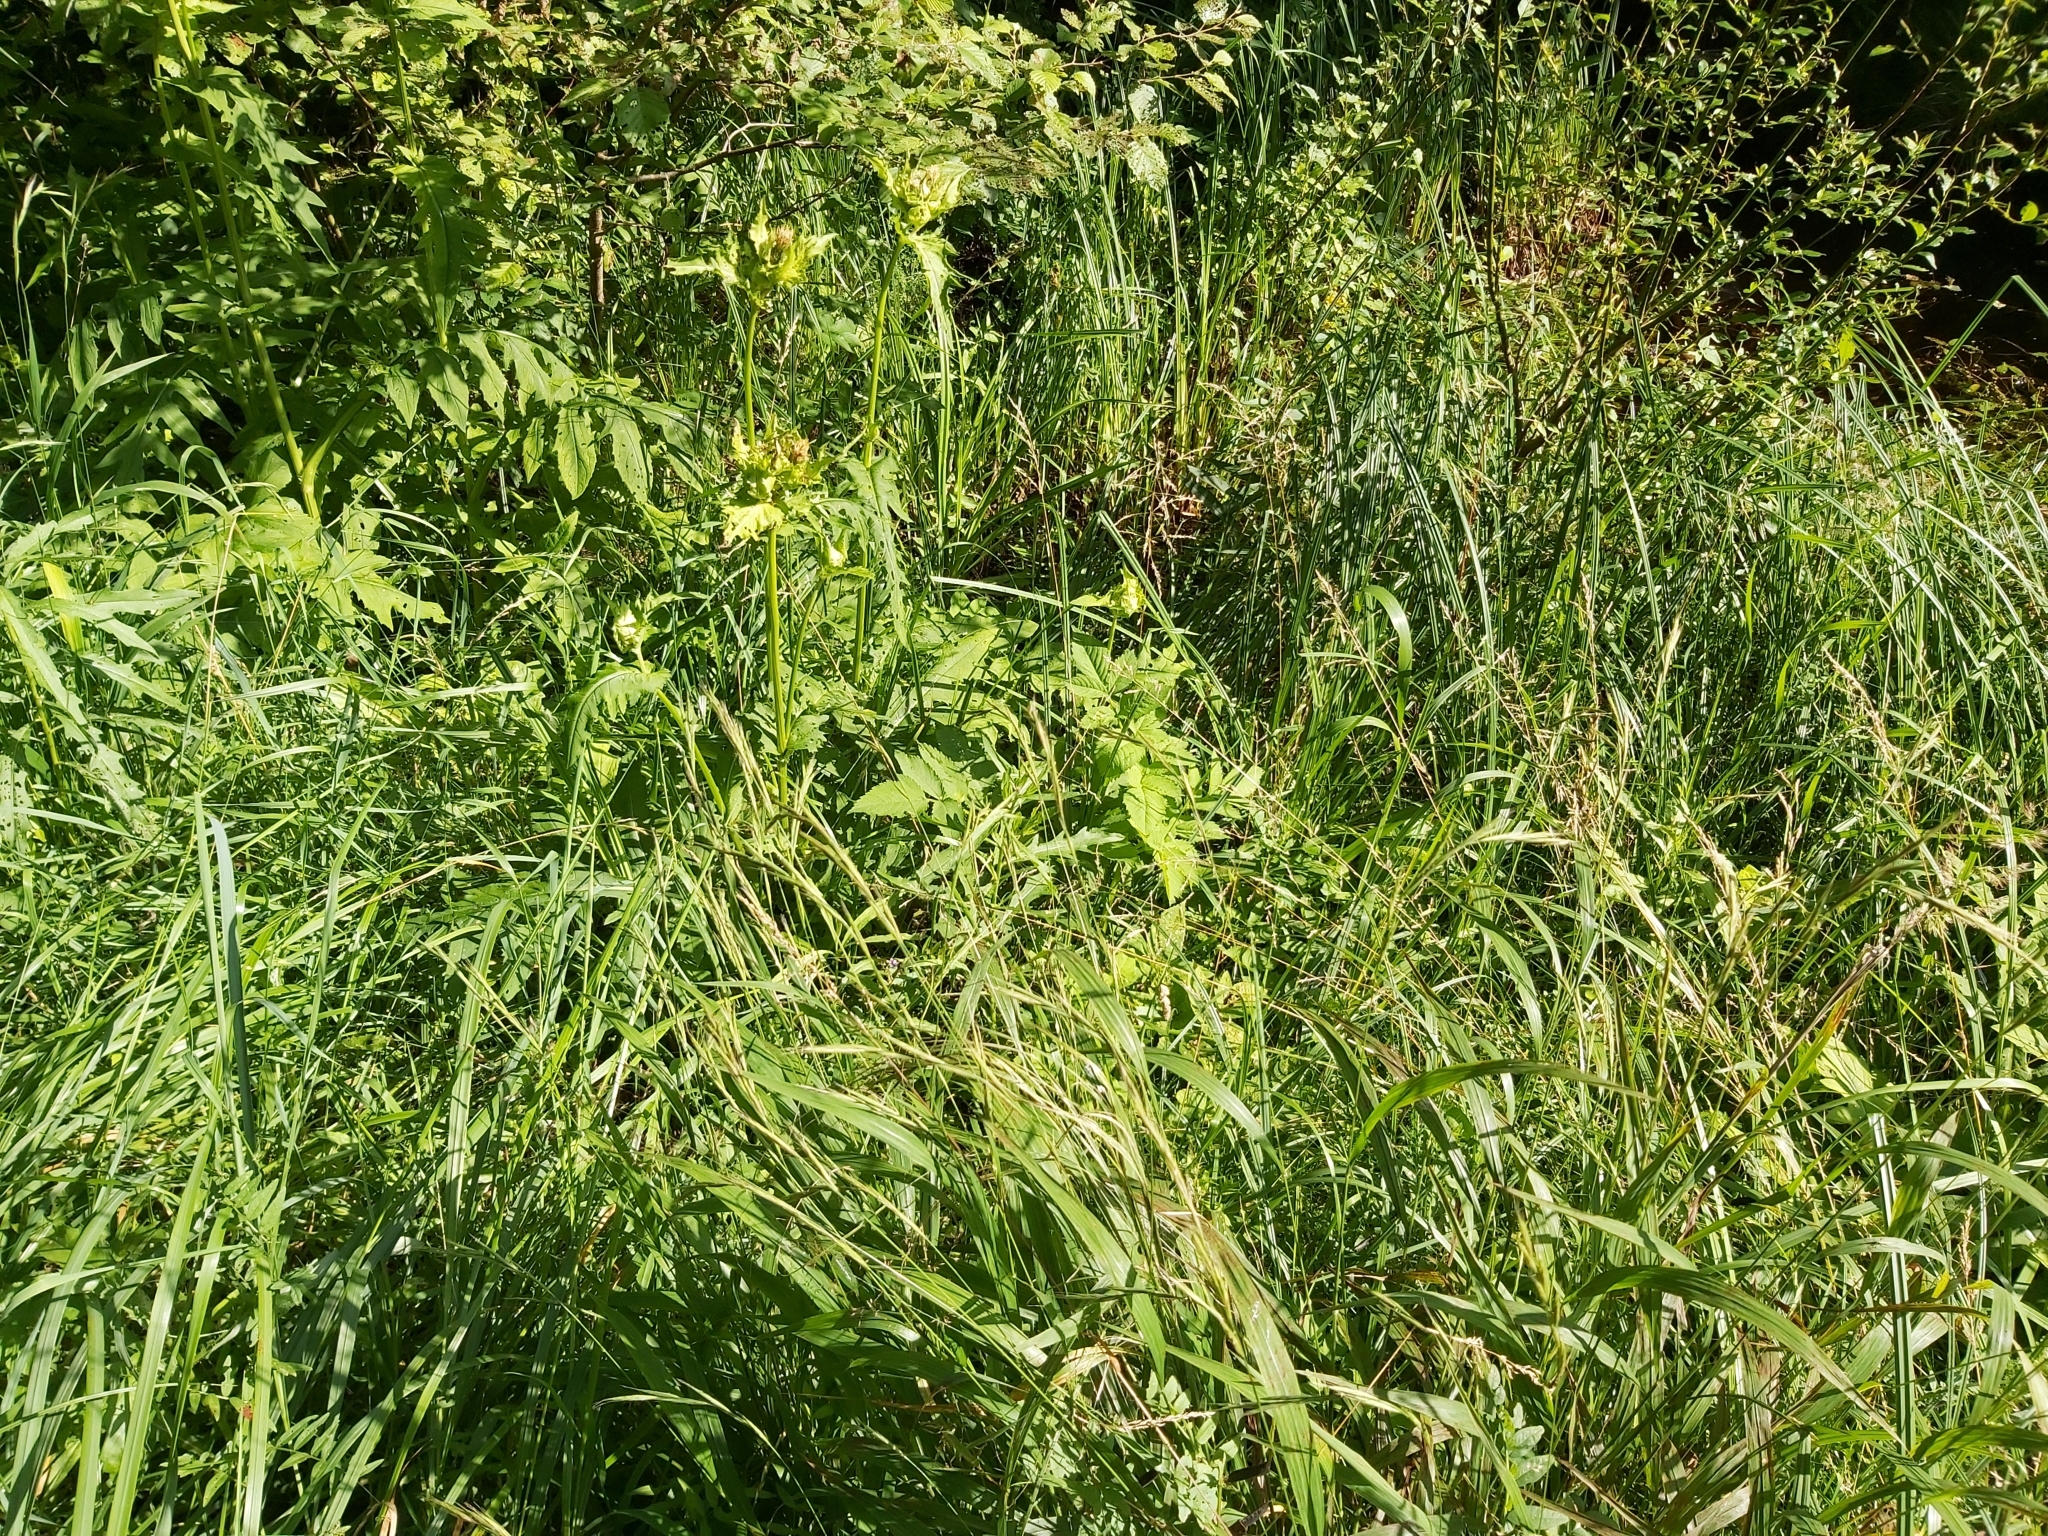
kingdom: Plantae
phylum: Tracheophyta
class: Liliopsida
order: Poales
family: Poaceae
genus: Brachypodium
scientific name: Brachypodium sylvaticum
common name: False-brome
